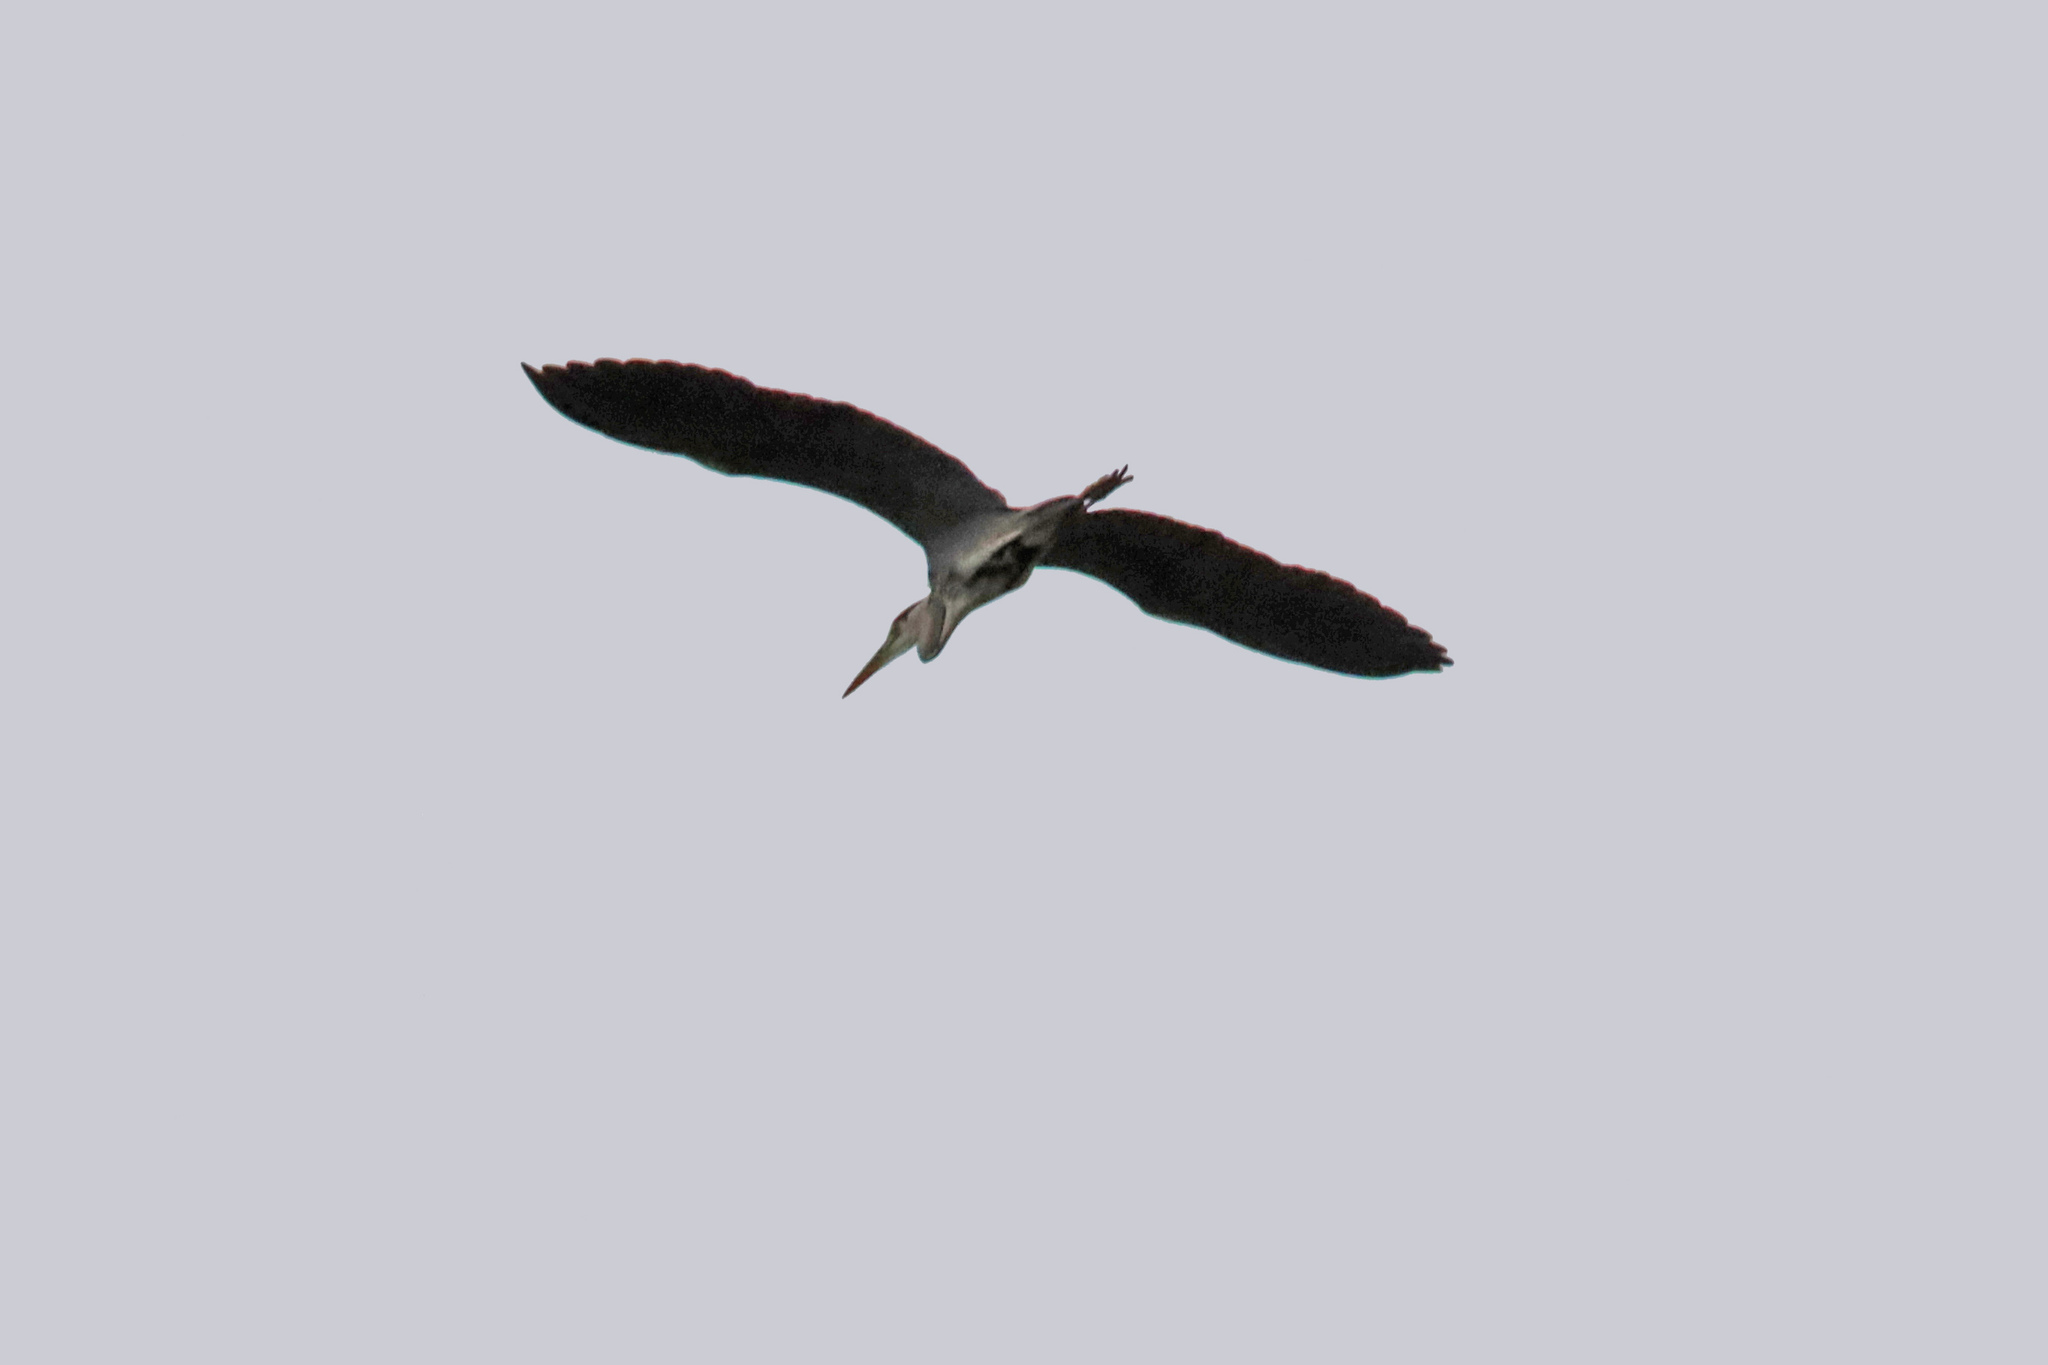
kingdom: Animalia
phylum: Chordata
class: Aves
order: Pelecaniformes
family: Ardeidae
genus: Ardea
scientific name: Ardea cinerea
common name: Grey heron
